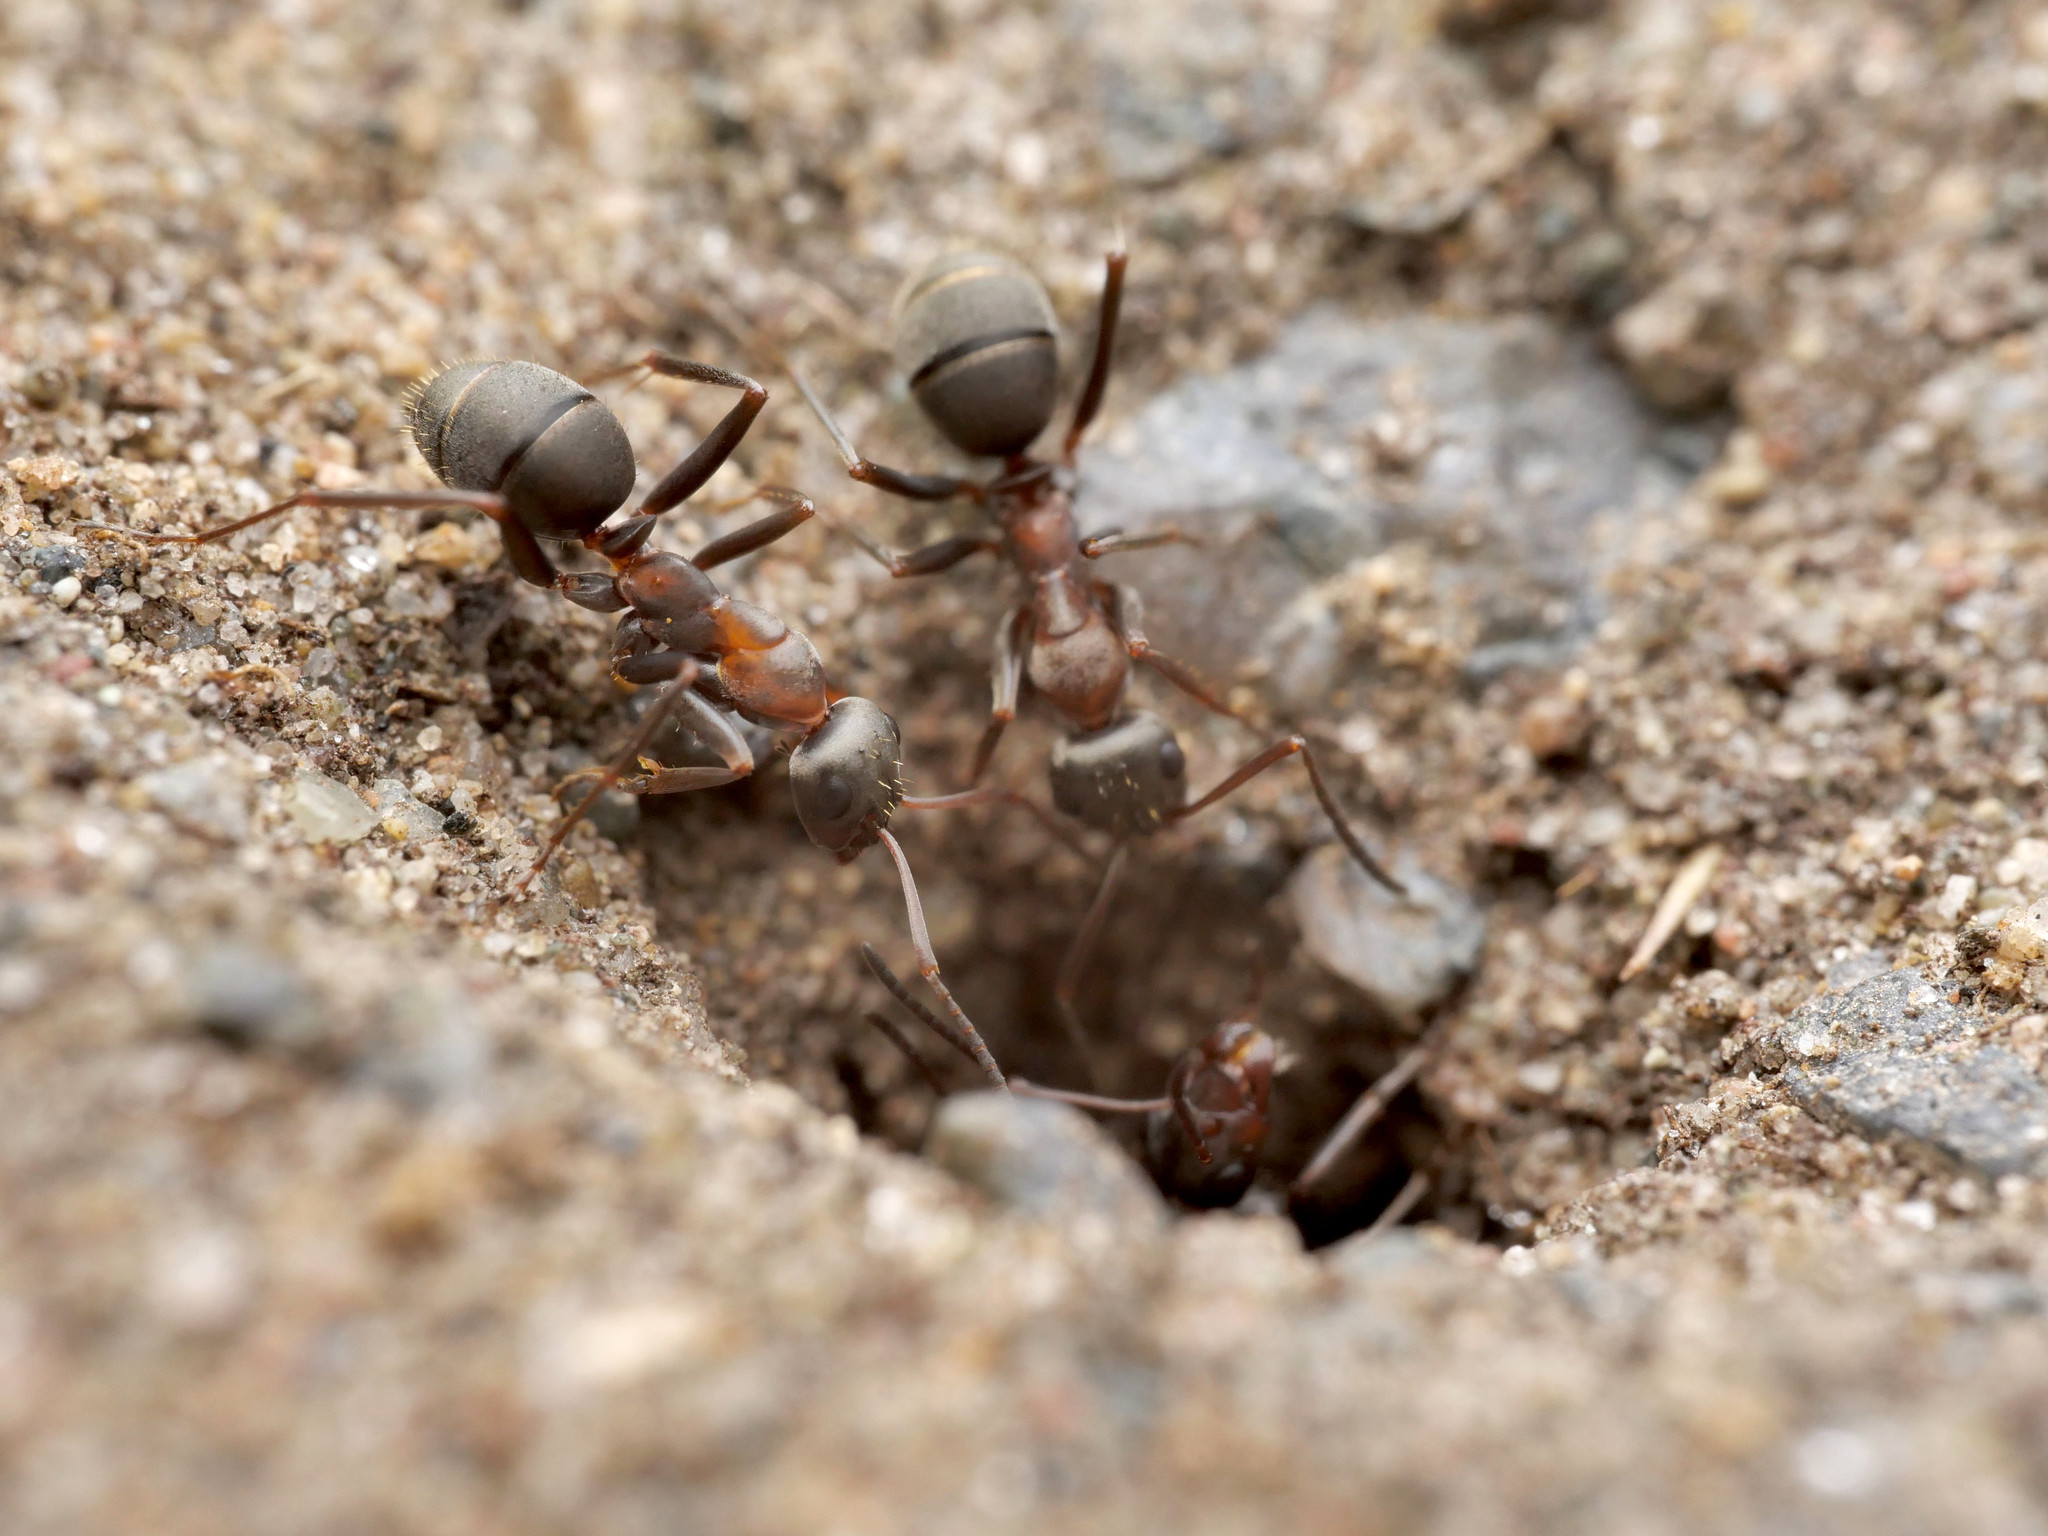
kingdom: Animalia
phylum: Arthropoda
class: Insecta
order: Hymenoptera
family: Formicidae
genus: Formica
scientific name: Formica cunicularia
